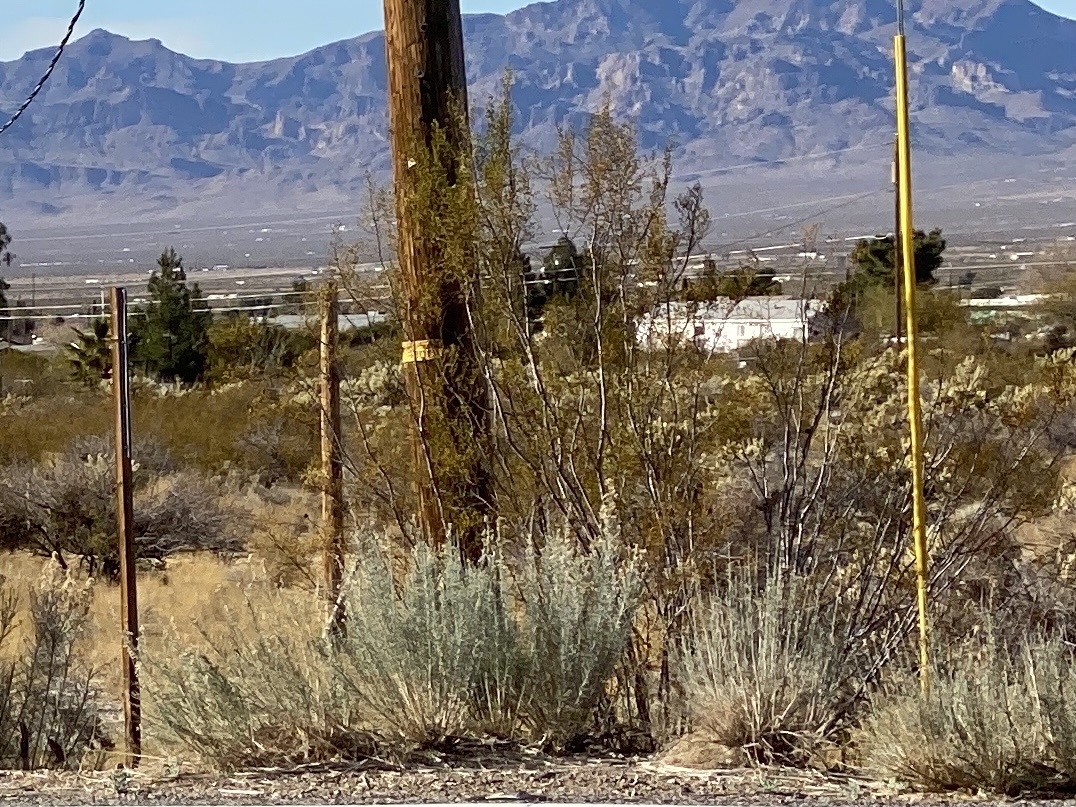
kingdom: Plantae
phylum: Tracheophyta
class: Magnoliopsida
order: Zygophyllales
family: Zygophyllaceae
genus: Larrea
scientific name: Larrea tridentata
